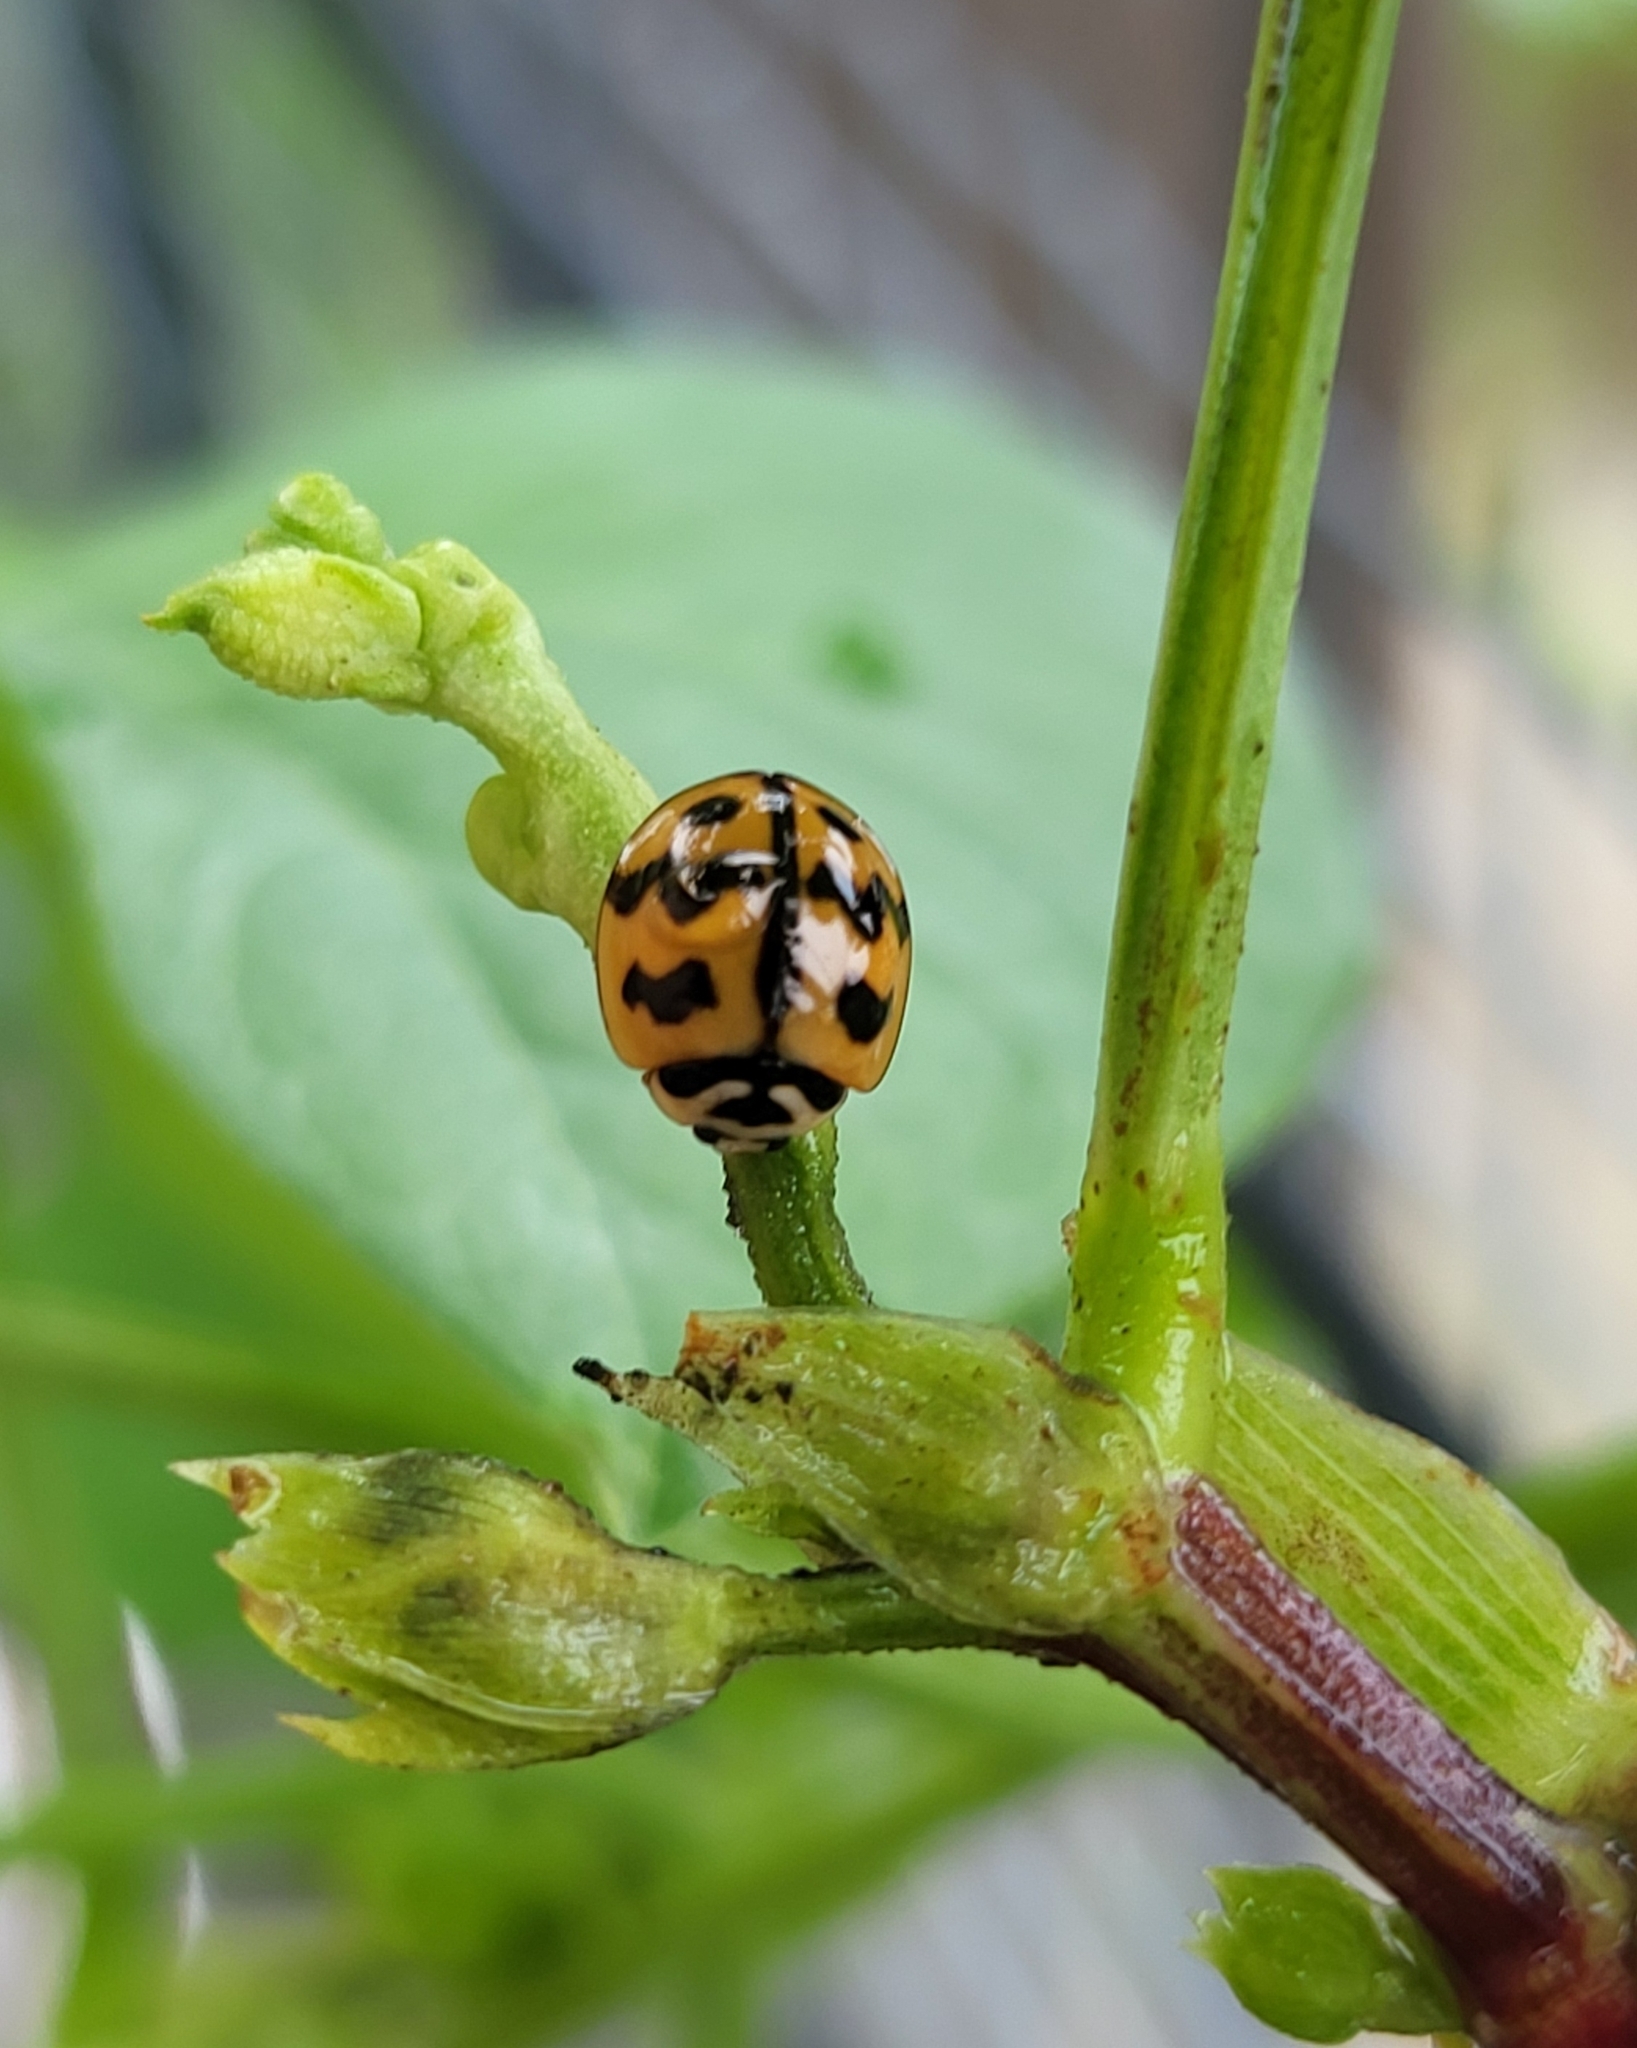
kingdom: Animalia
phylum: Arthropoda
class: Insecta
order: Coleoptera
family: Coccinellidae
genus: Cheilomenes
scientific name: Cheilomenes sexmaculata
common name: Ladybird beetle
